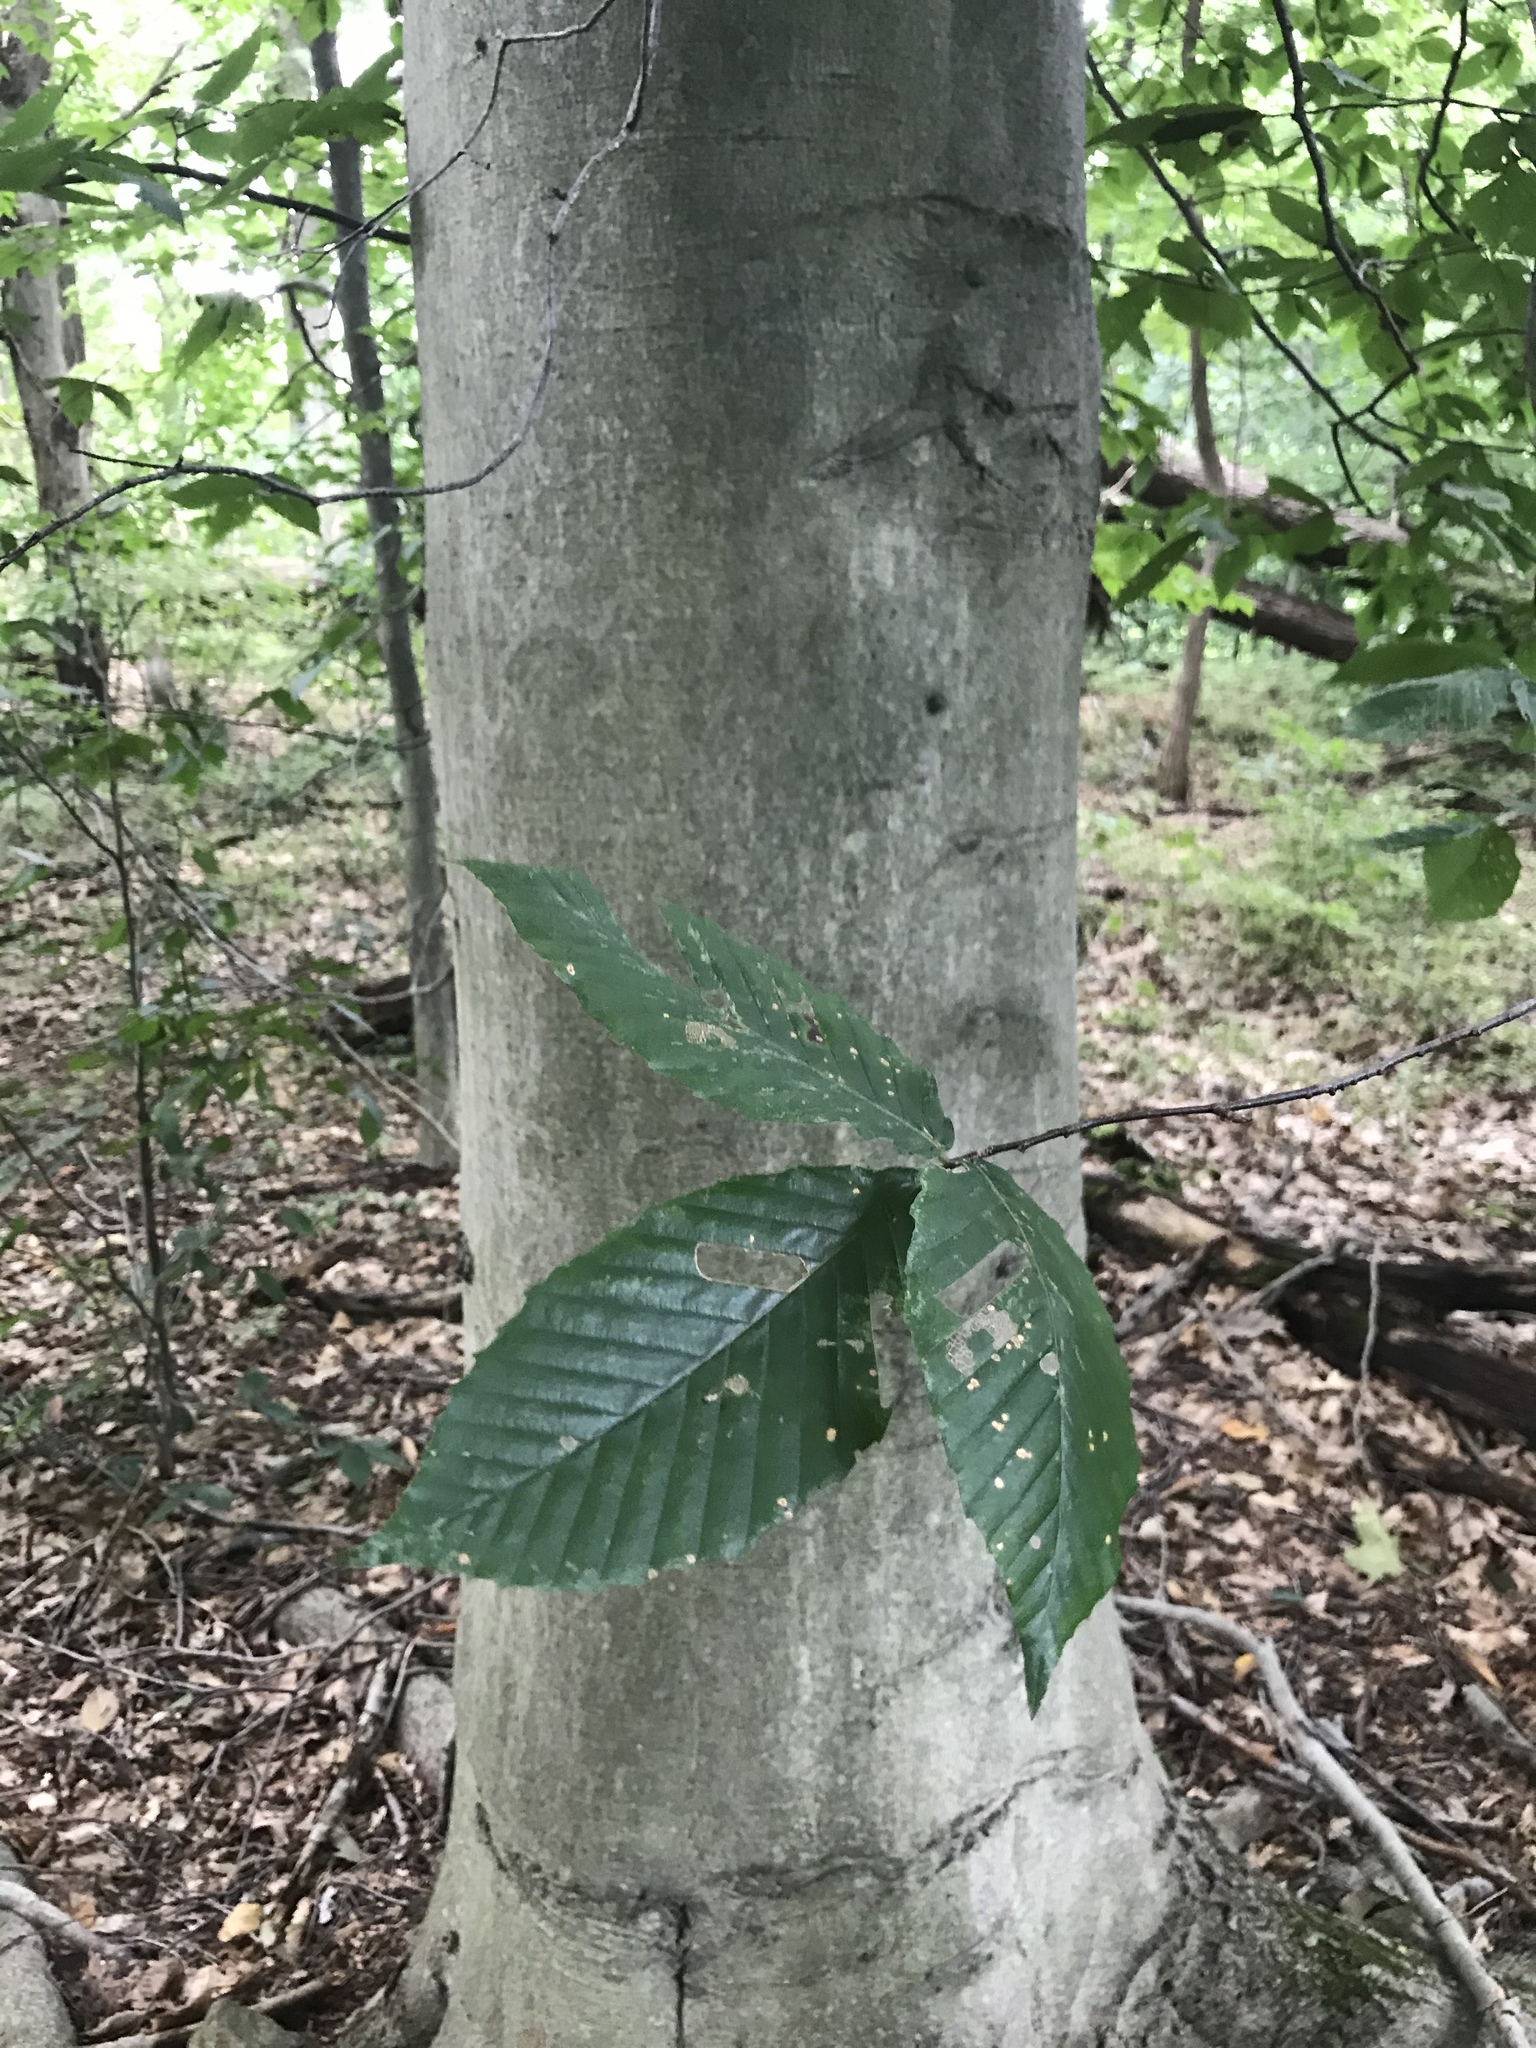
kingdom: Plantae
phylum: Tracheophyta
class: Magnoliopsida
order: Fagales
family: Fagaceae
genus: Fagus
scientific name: Fagus grandifolia
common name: American beech
